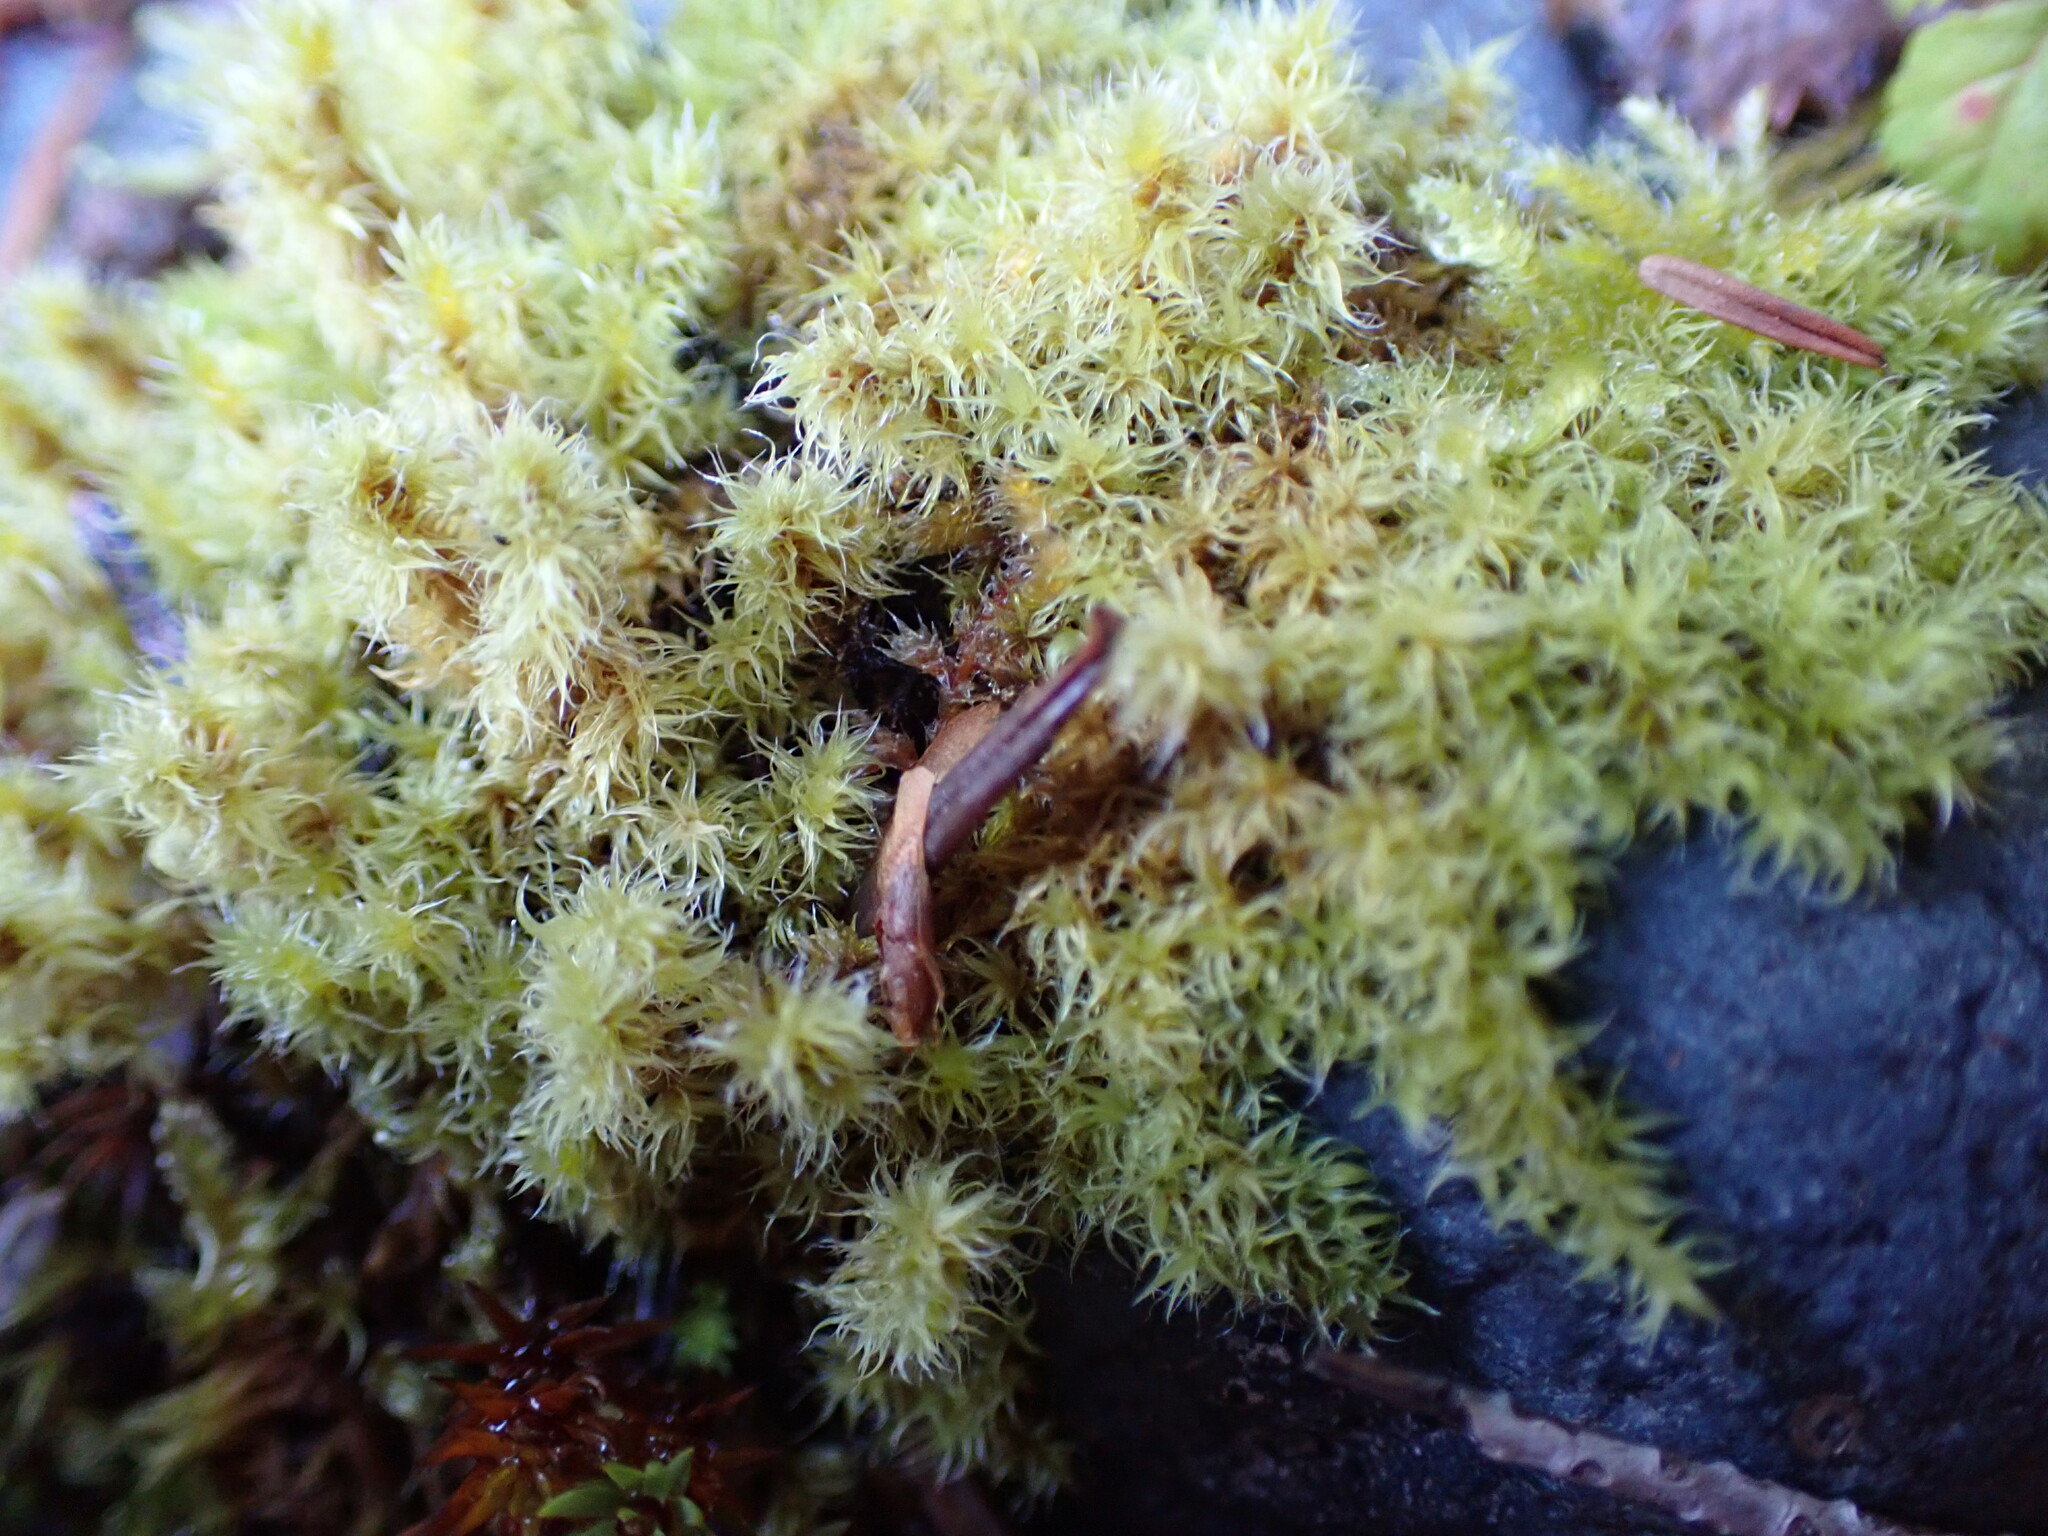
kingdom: Plantae
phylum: Bryophyta
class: Bryopsida
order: Grimmiales
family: Grimmiaceae
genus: Niphotrichum
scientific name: Niphotrichum elongatum
